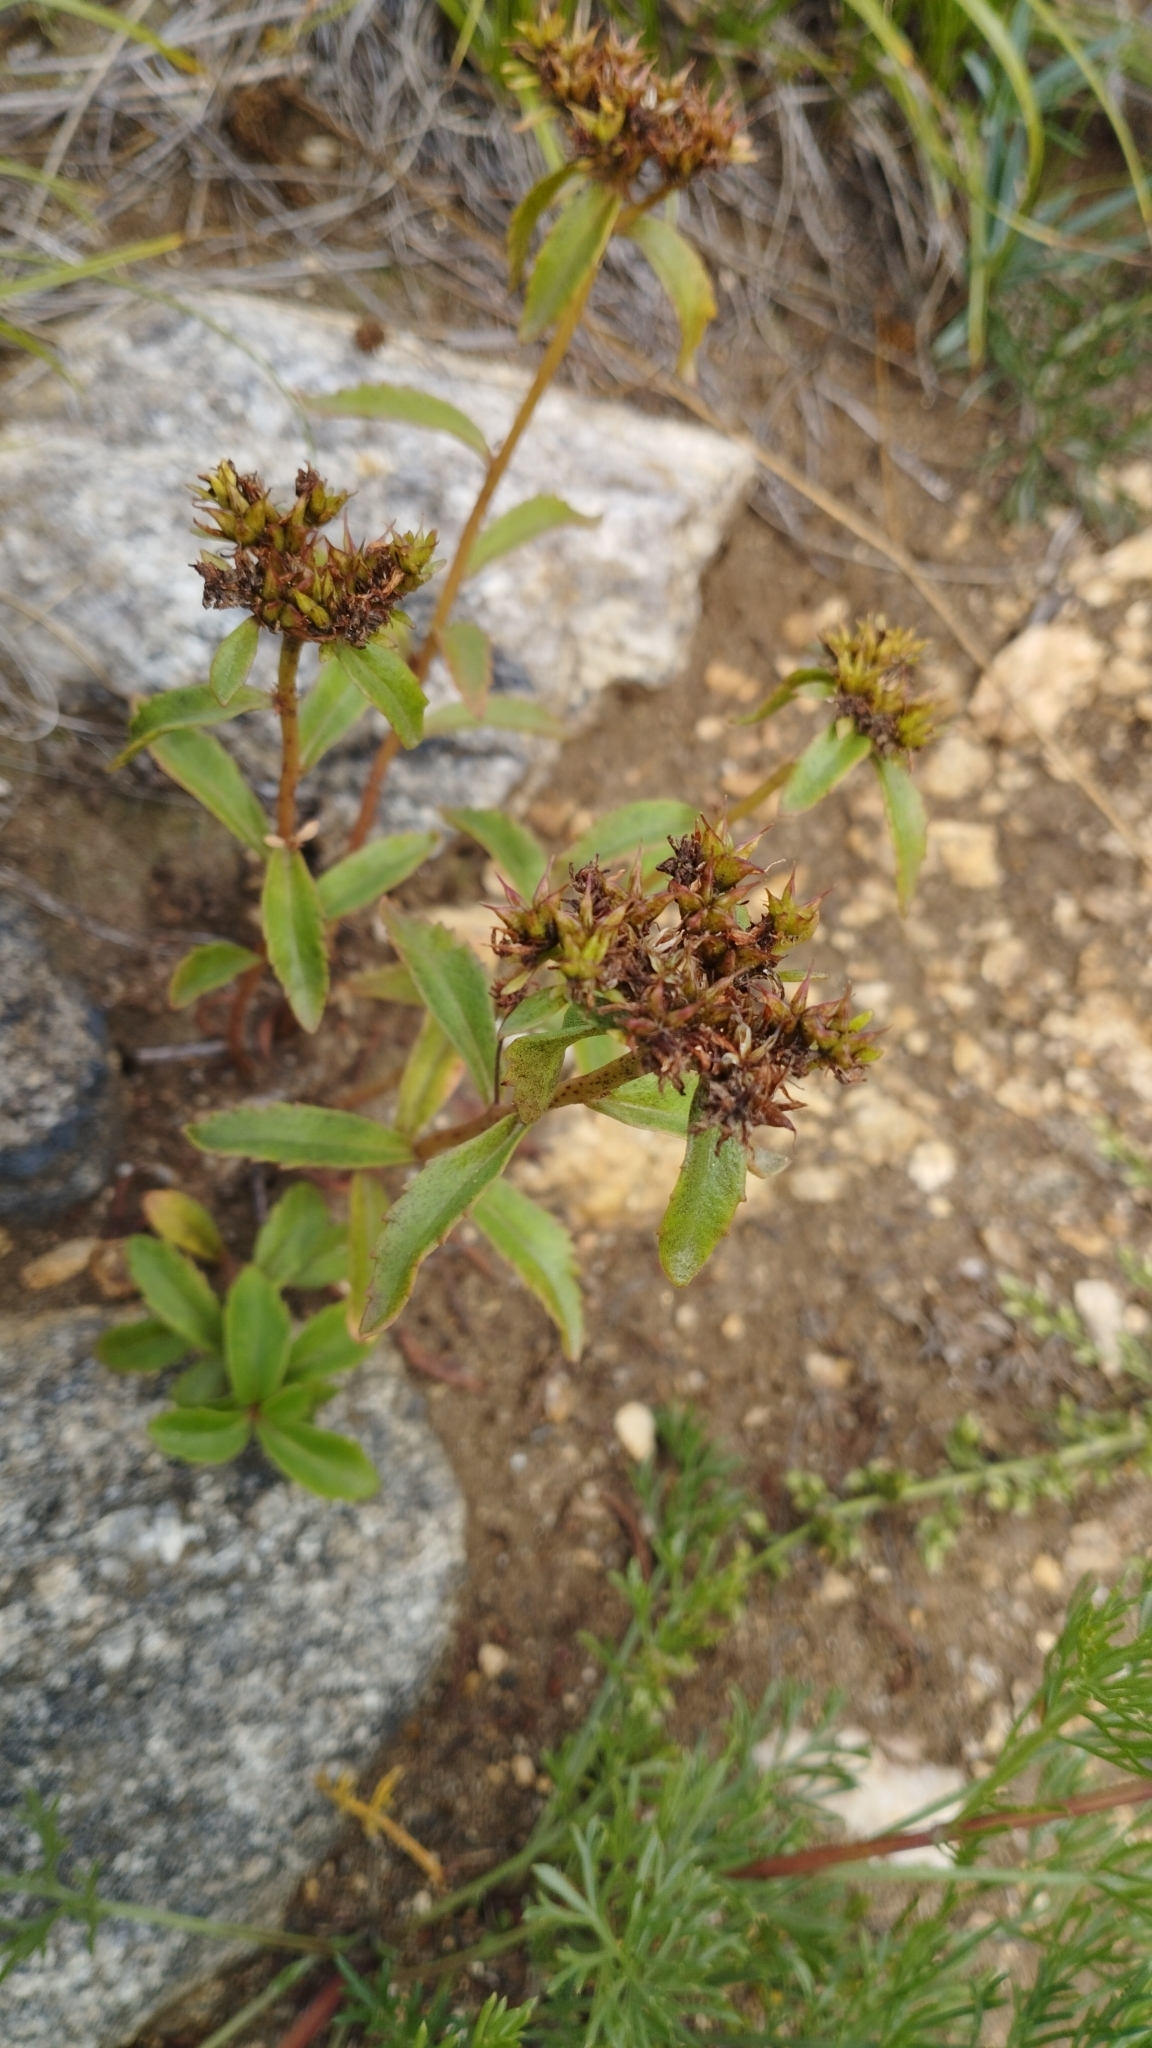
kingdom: Plantae
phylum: Tracheophyta
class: Magnoliopsida
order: Saxifragales
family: Crassulaceae
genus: Phedimus
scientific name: Phedimus aizoon
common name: Orpin aizoon
